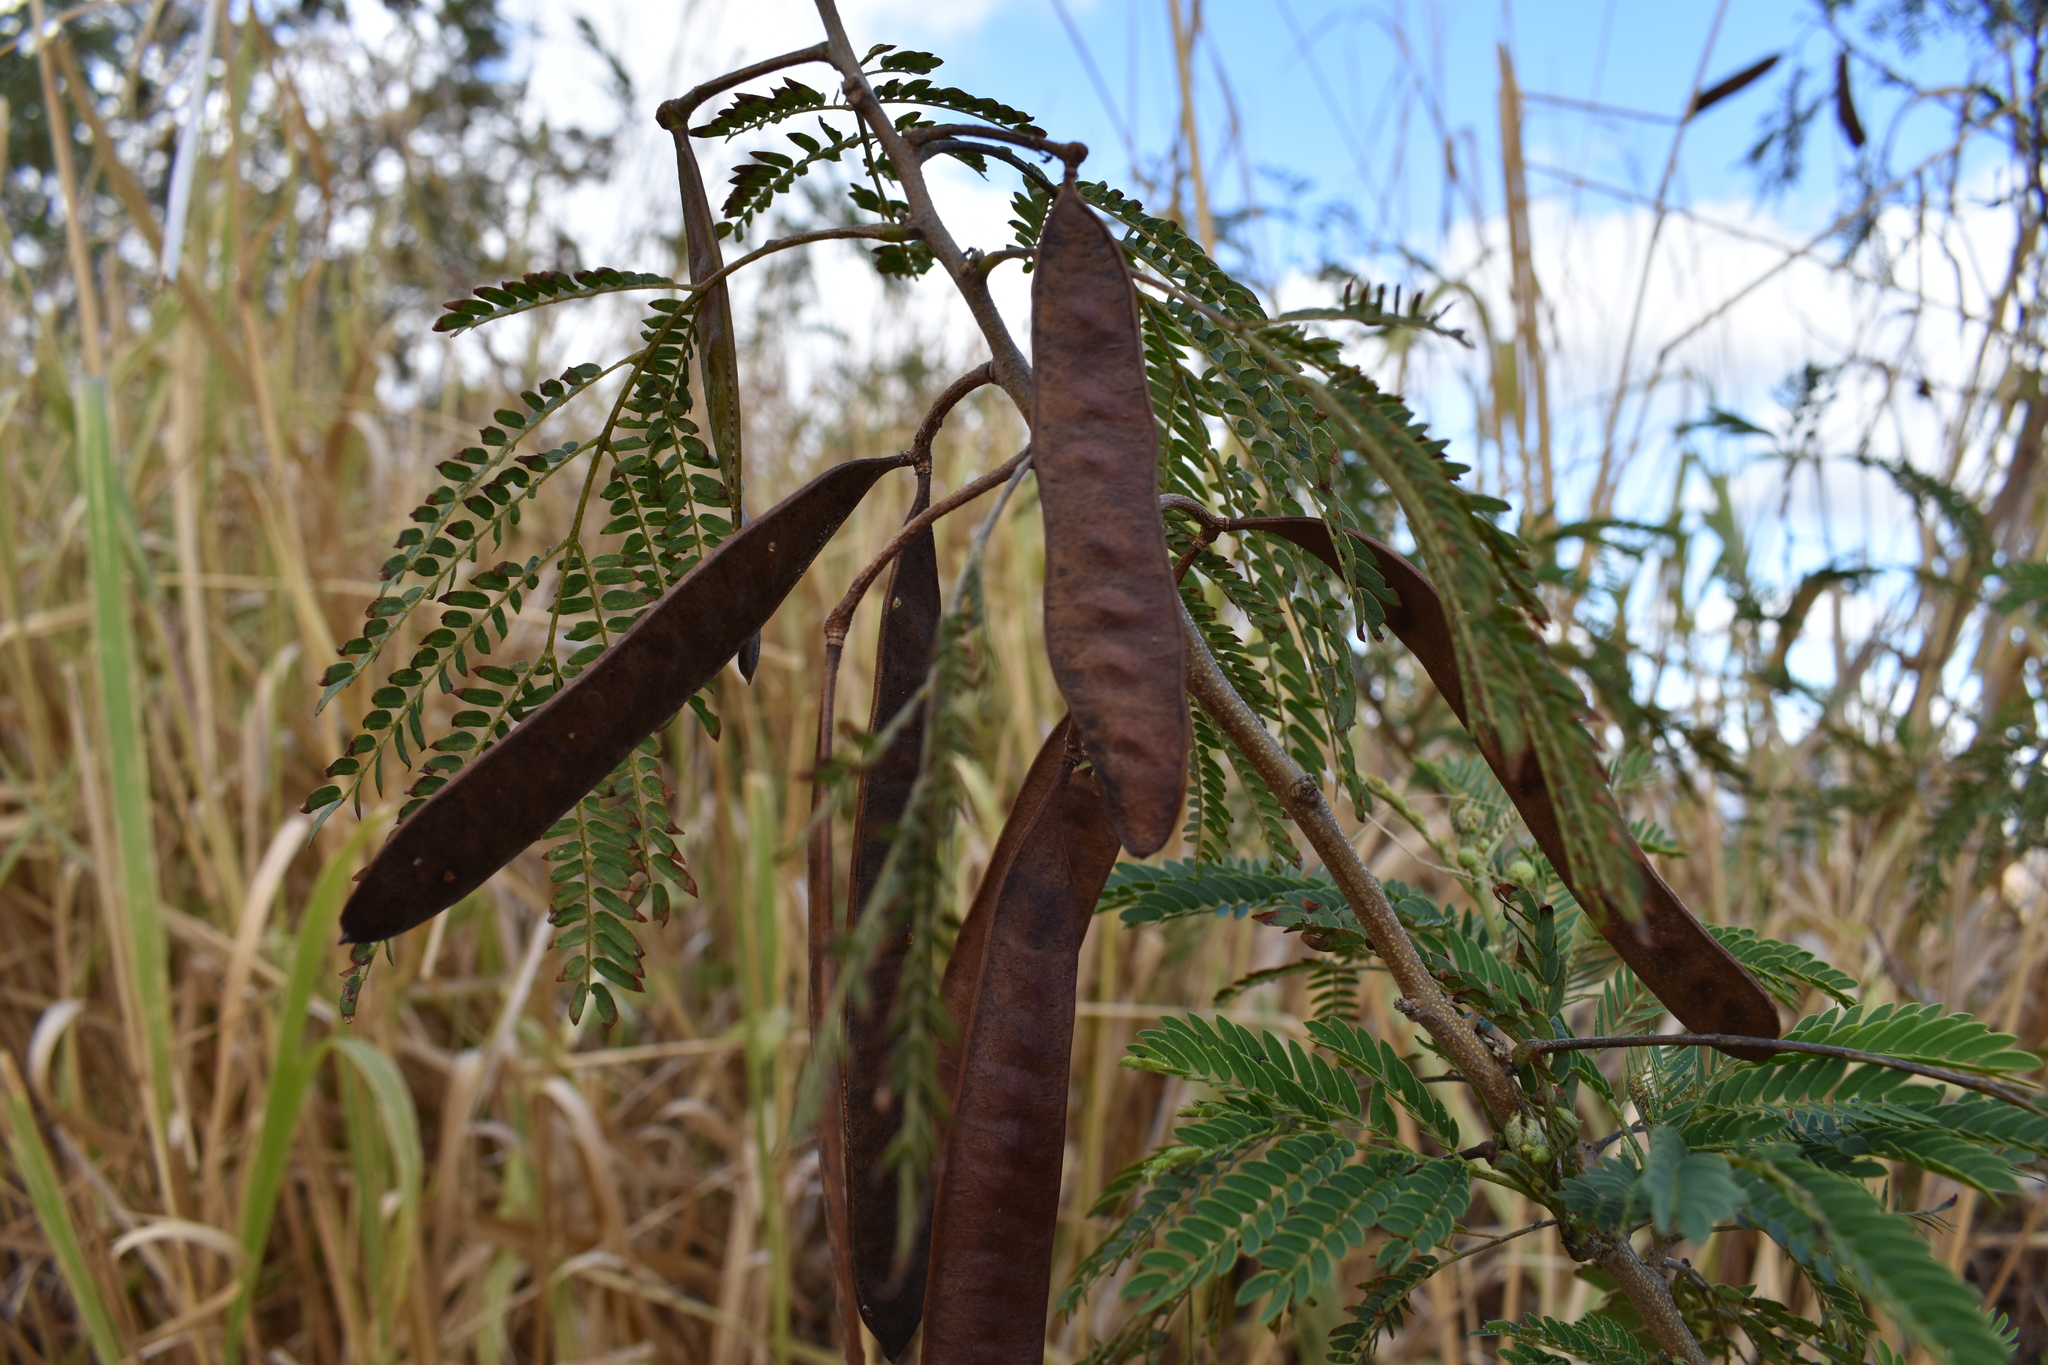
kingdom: Plantae
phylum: Tracheophyta
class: Magnoliopsida
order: Fabales
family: Fabaceae
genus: Leucaena
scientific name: Leucaena leucocephala
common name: White leadtree
